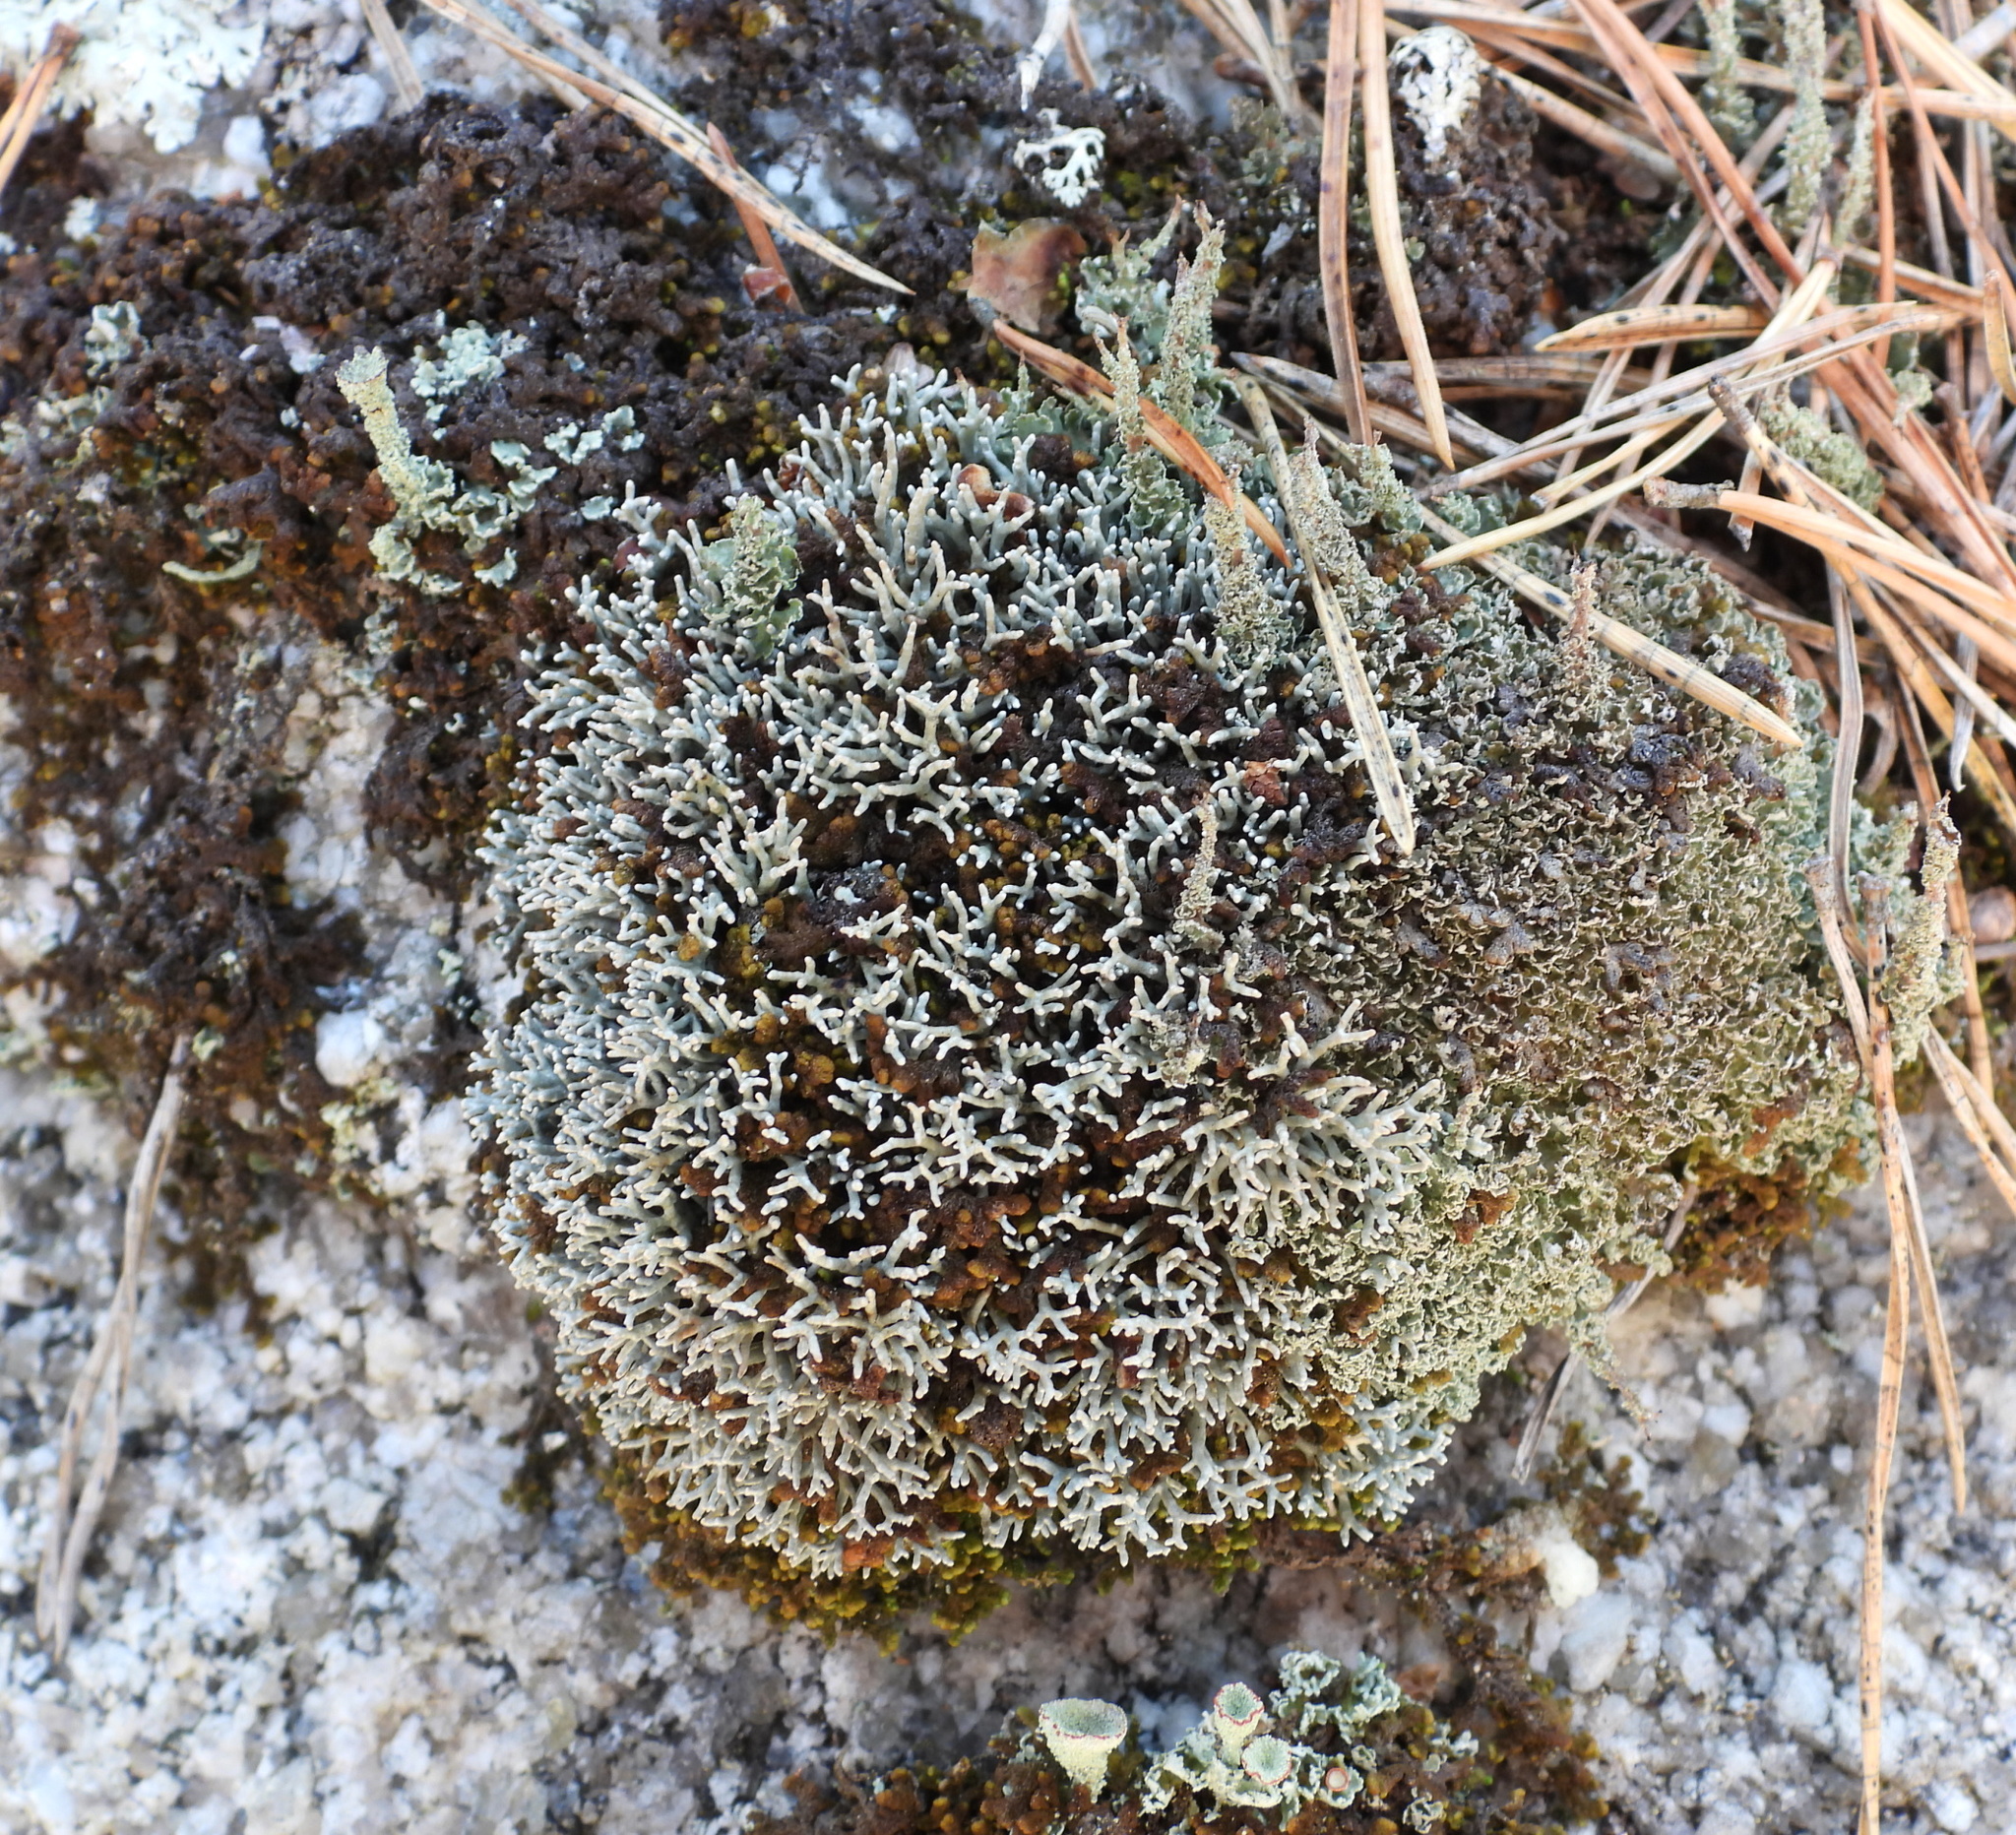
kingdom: Fungi
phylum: Ascomycota
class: Lecanoromycetes
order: Lecanorales
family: Sphaerophoraceae
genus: Sphaerophorus
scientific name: Sphaerophorus fragilis
